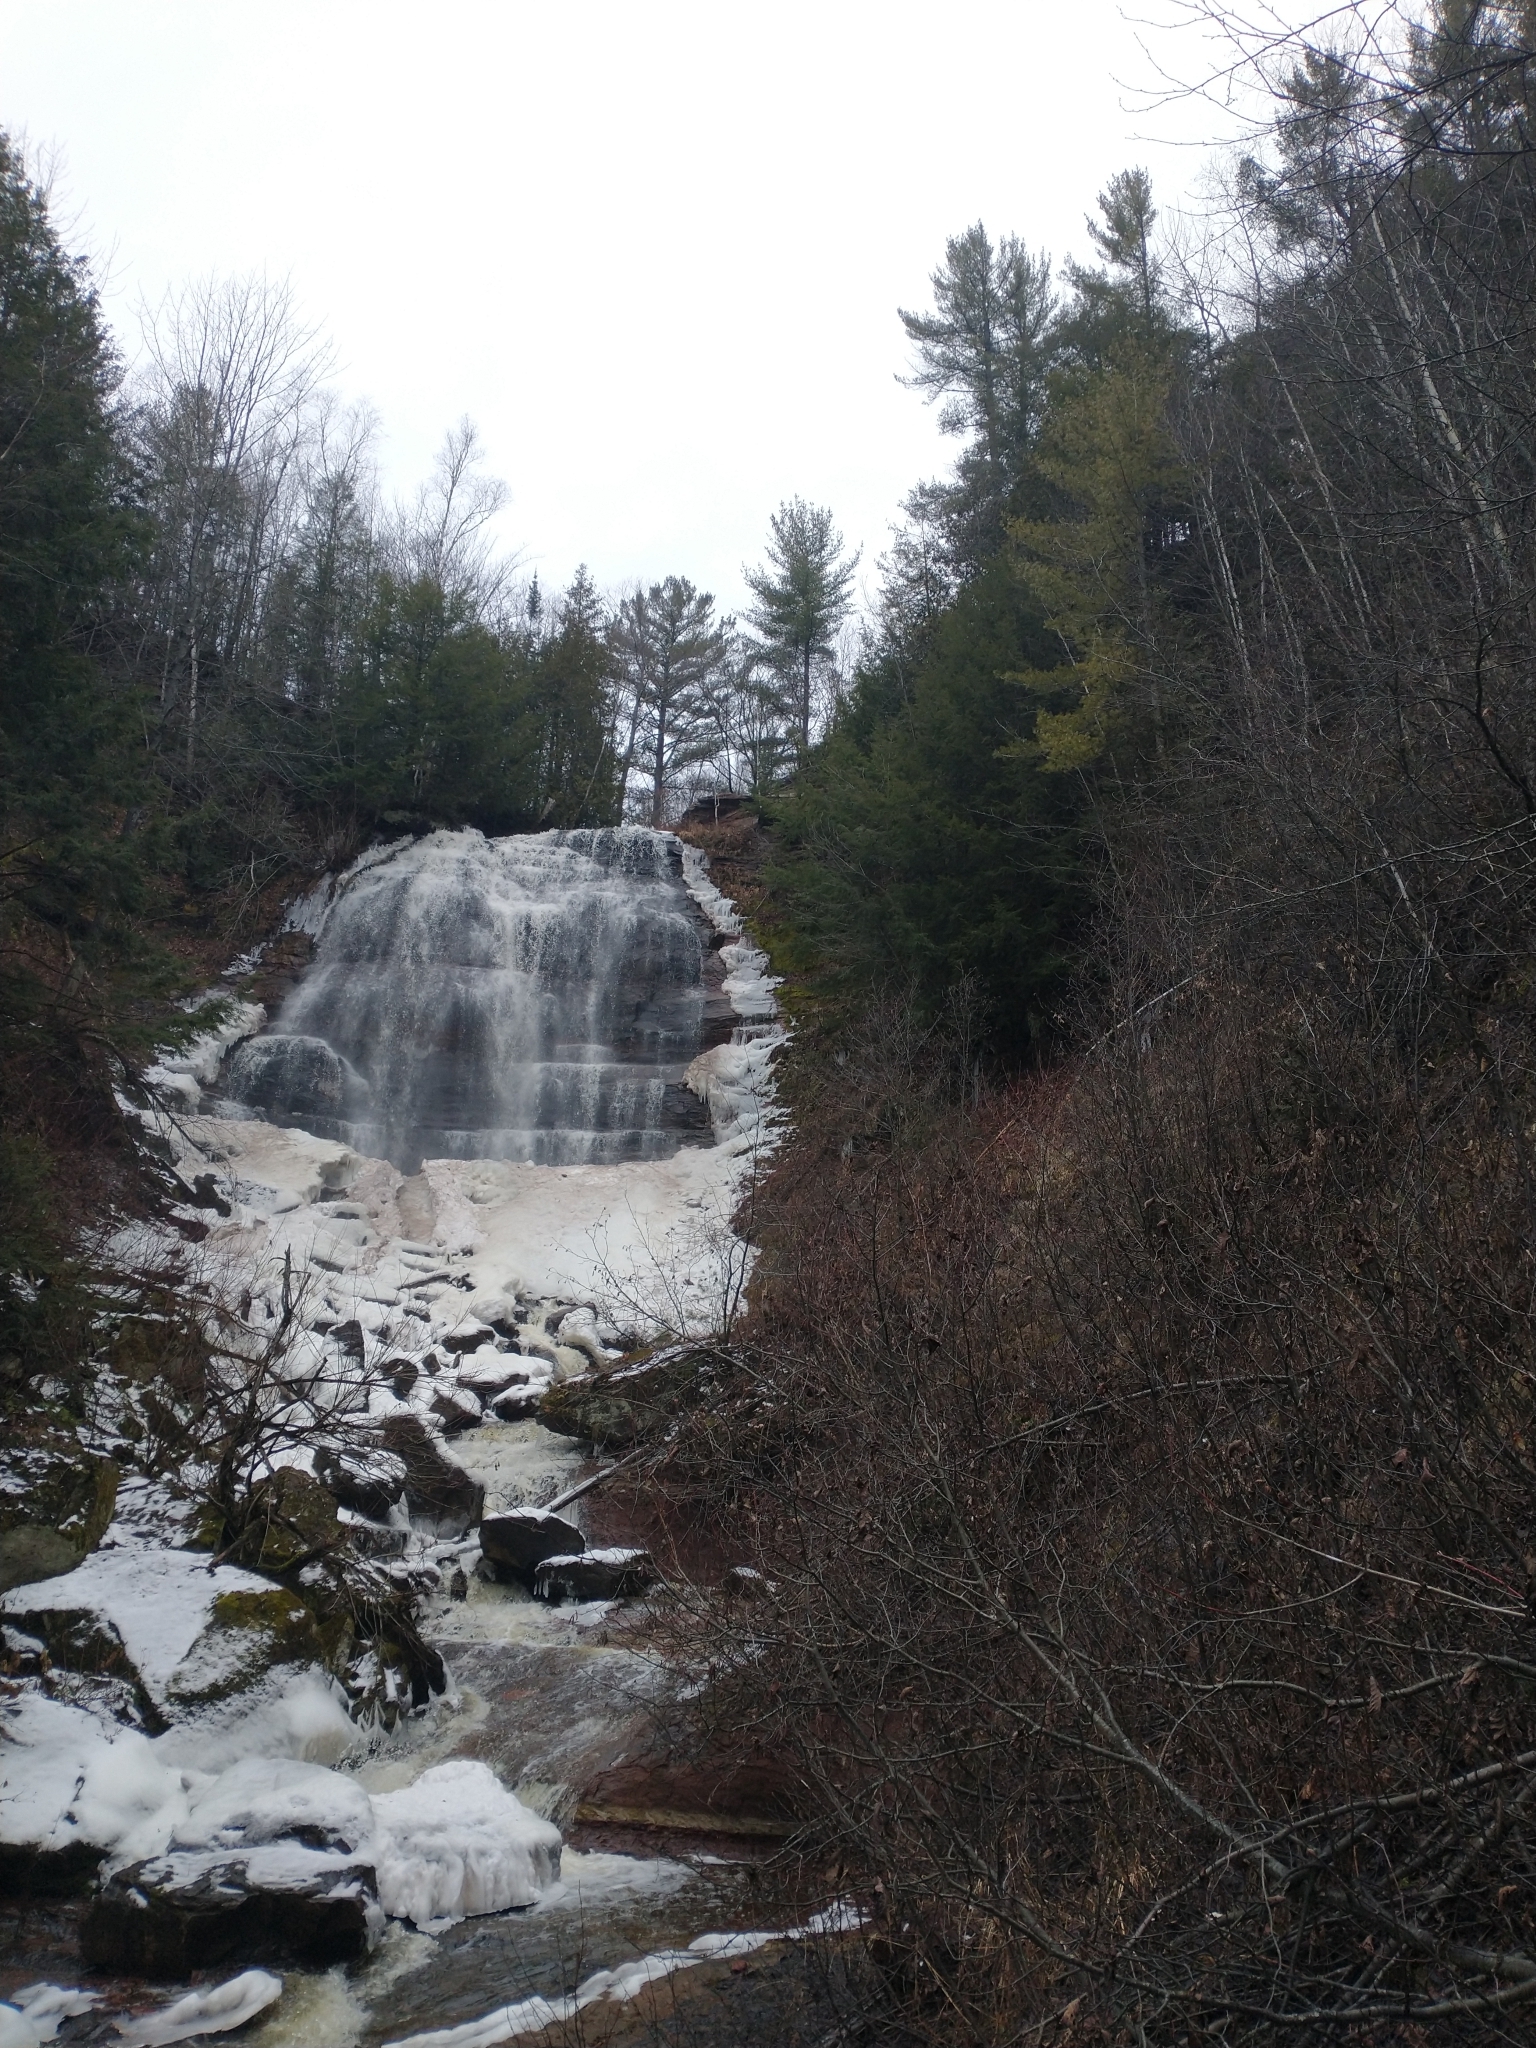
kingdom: Plantae
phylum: Tracheophyta
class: Pinopsida
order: Pinales
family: Pinaceae
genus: Pinus
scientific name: Pinus strobus
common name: Weymouth pine
